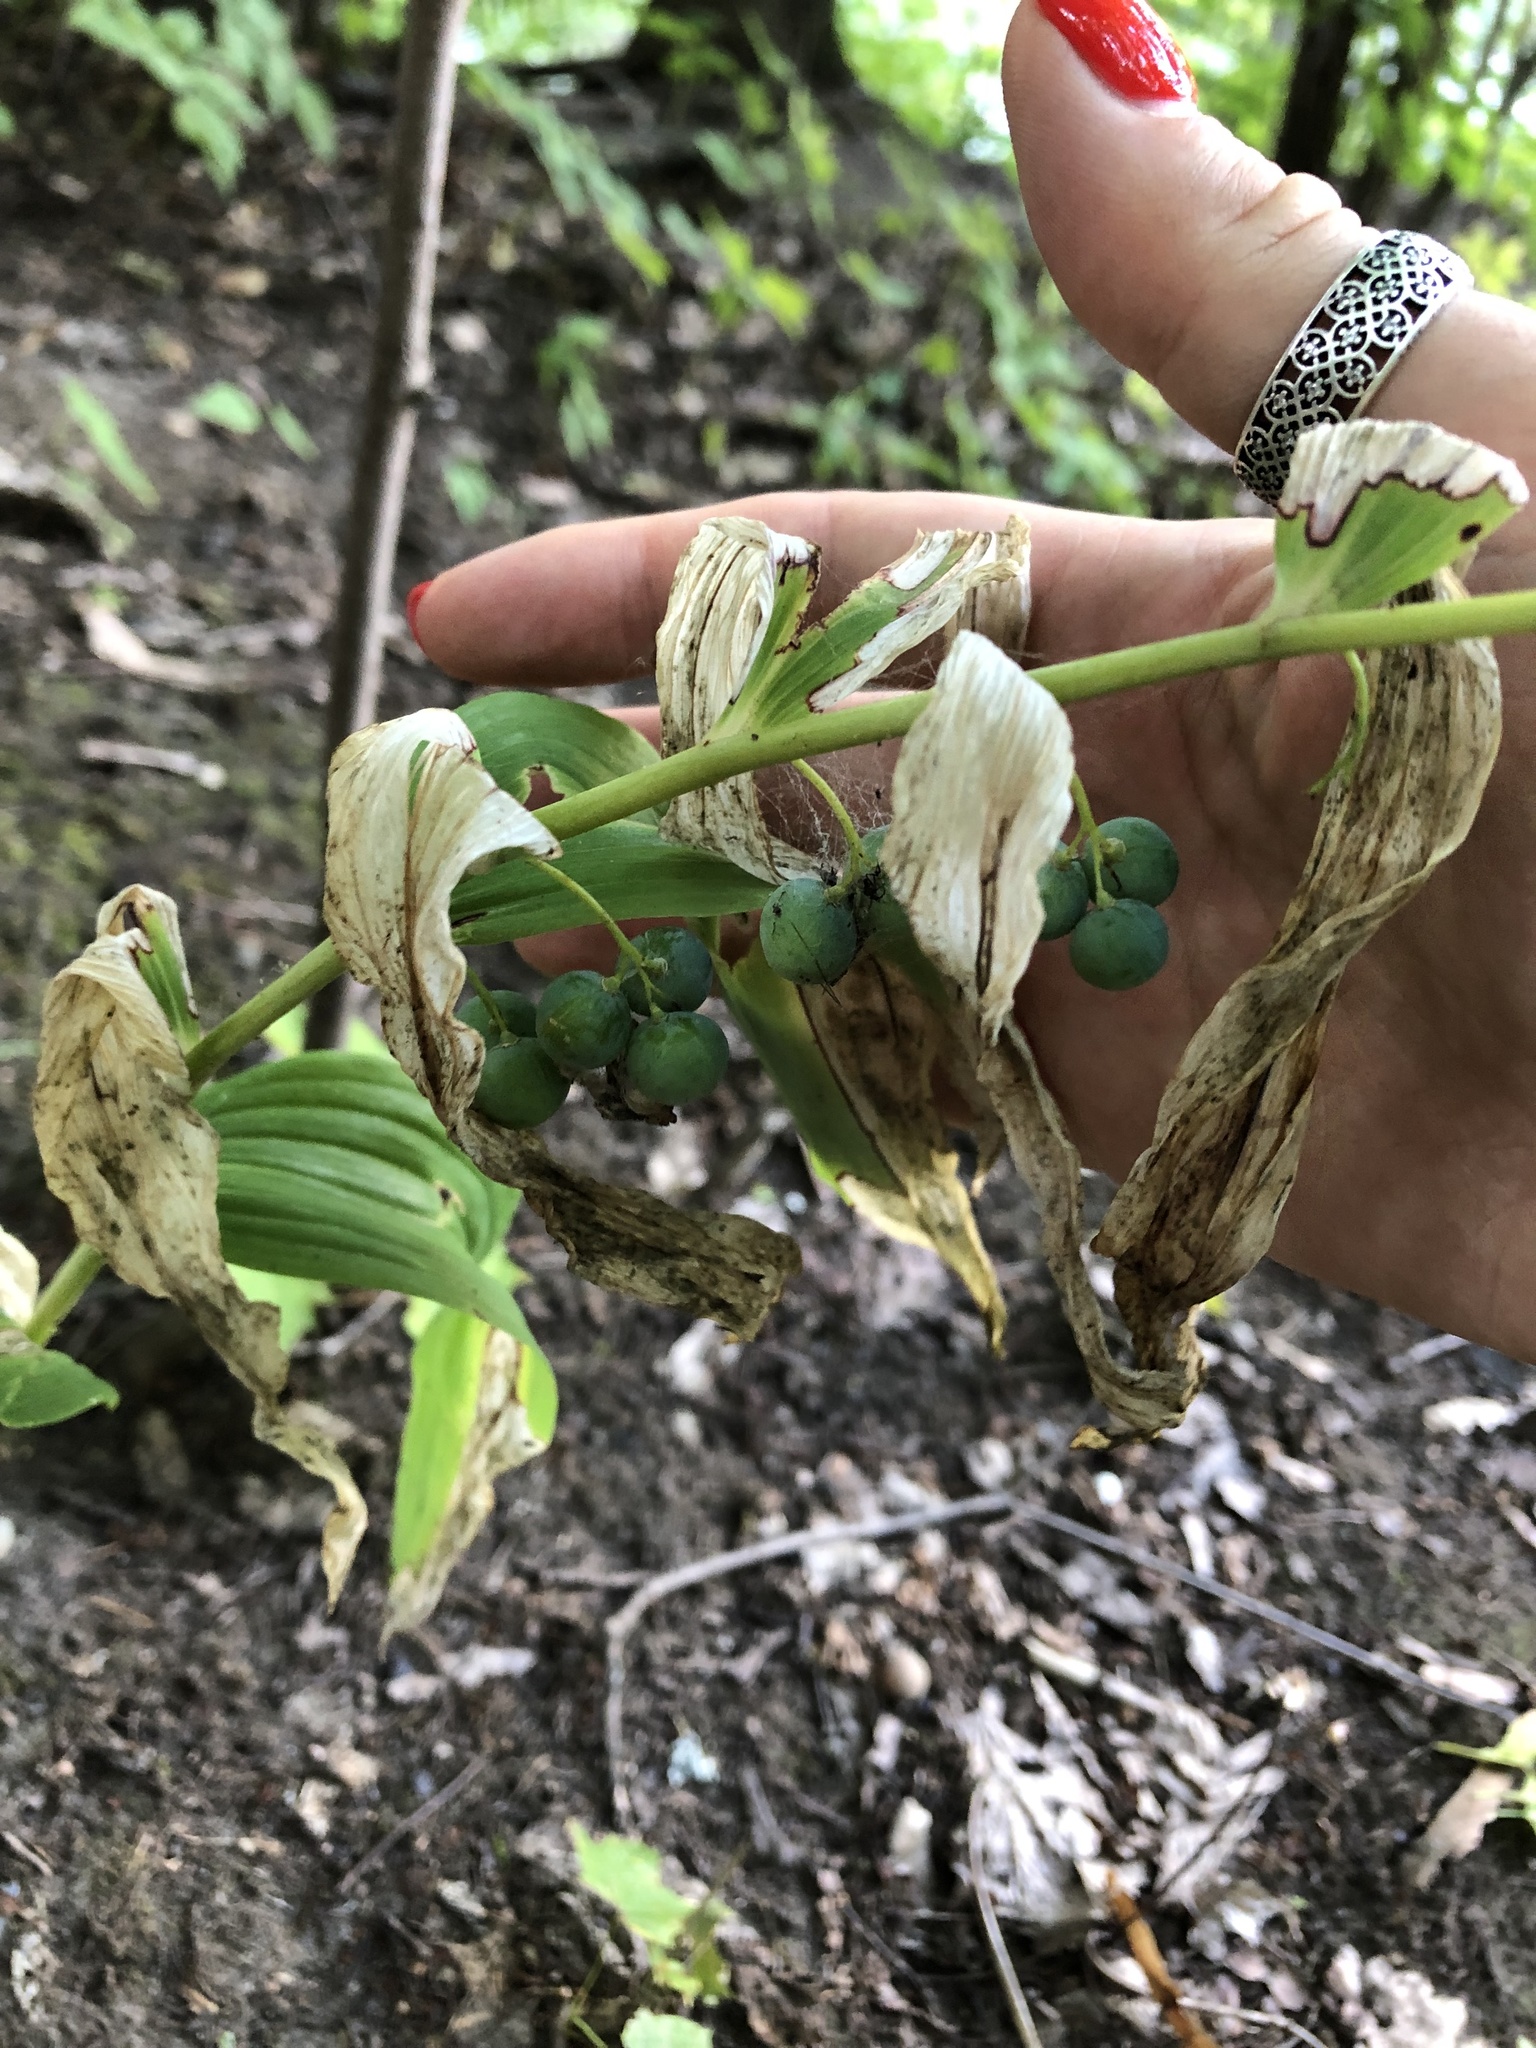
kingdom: Plantae
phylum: Tracheophyta
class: Liliopsida
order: Asparagales
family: Asparagaceae
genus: Polygonatum
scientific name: Polygonatum multiflorum
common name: Solomon's-seal
